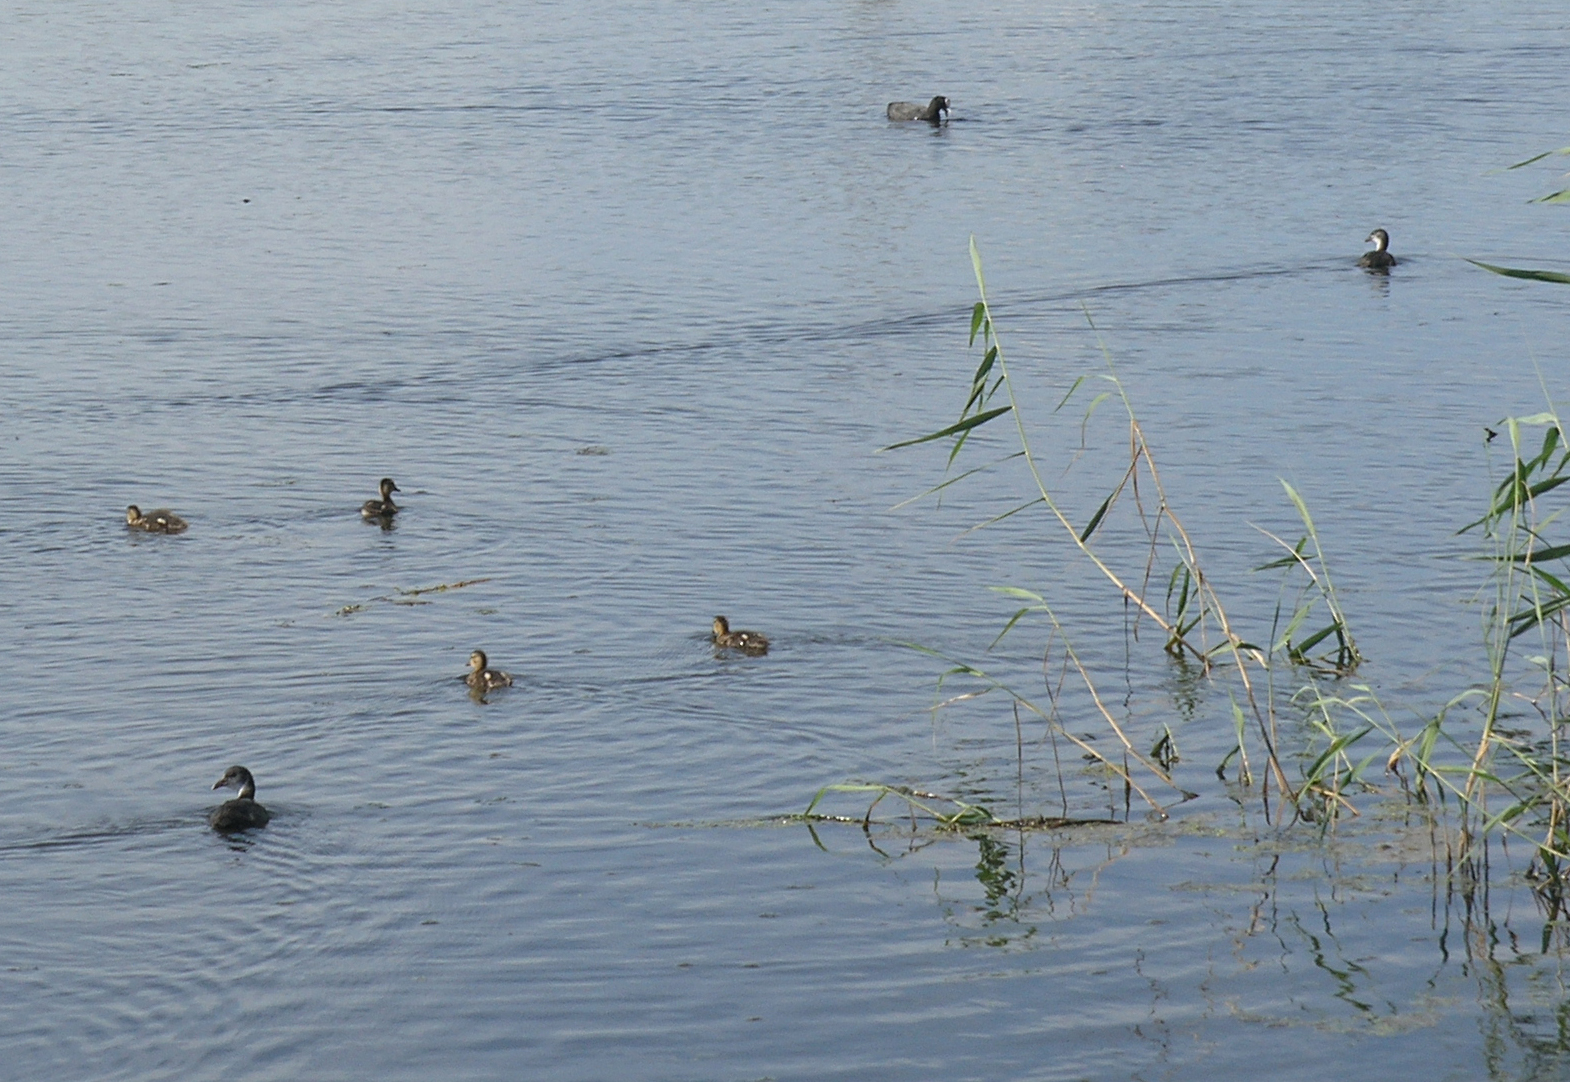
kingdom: Animalia
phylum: Chordata
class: Aves
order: Gruiformes
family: Rallidae
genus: Fulica
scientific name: Fulica atra
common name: Eurasian coot
